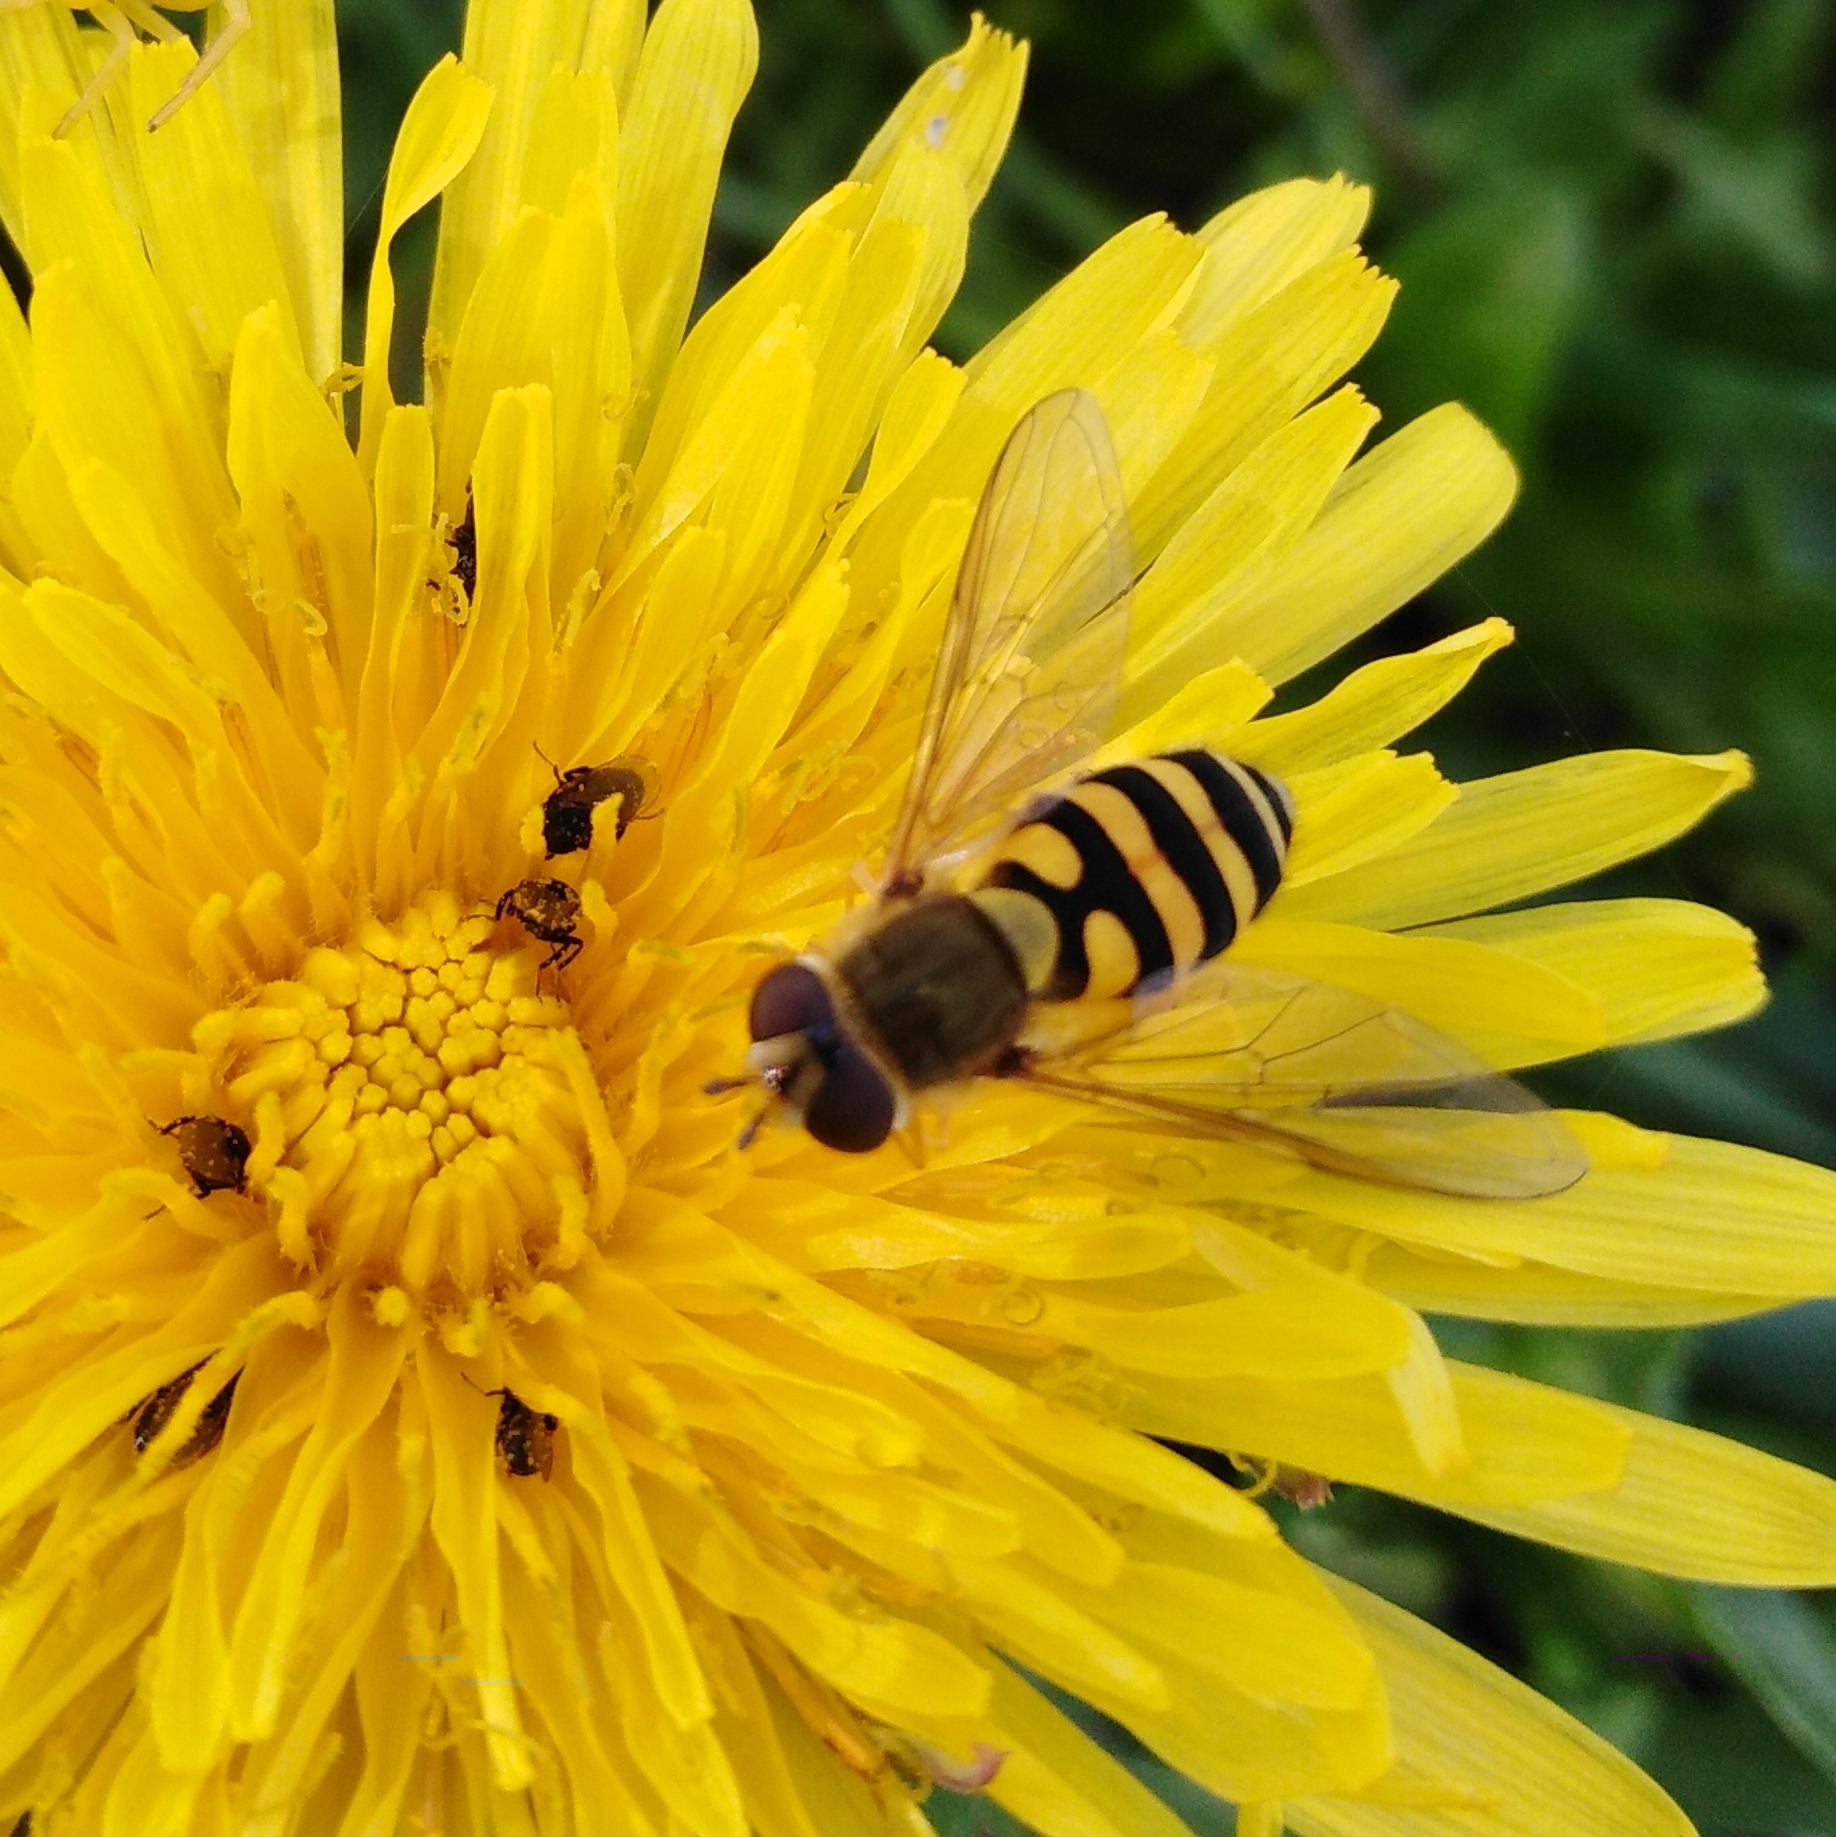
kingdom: Animalia
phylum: Arthropoda
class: Insecta
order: Diptera
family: Syrphidae
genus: Syrphus
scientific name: Syrphus
